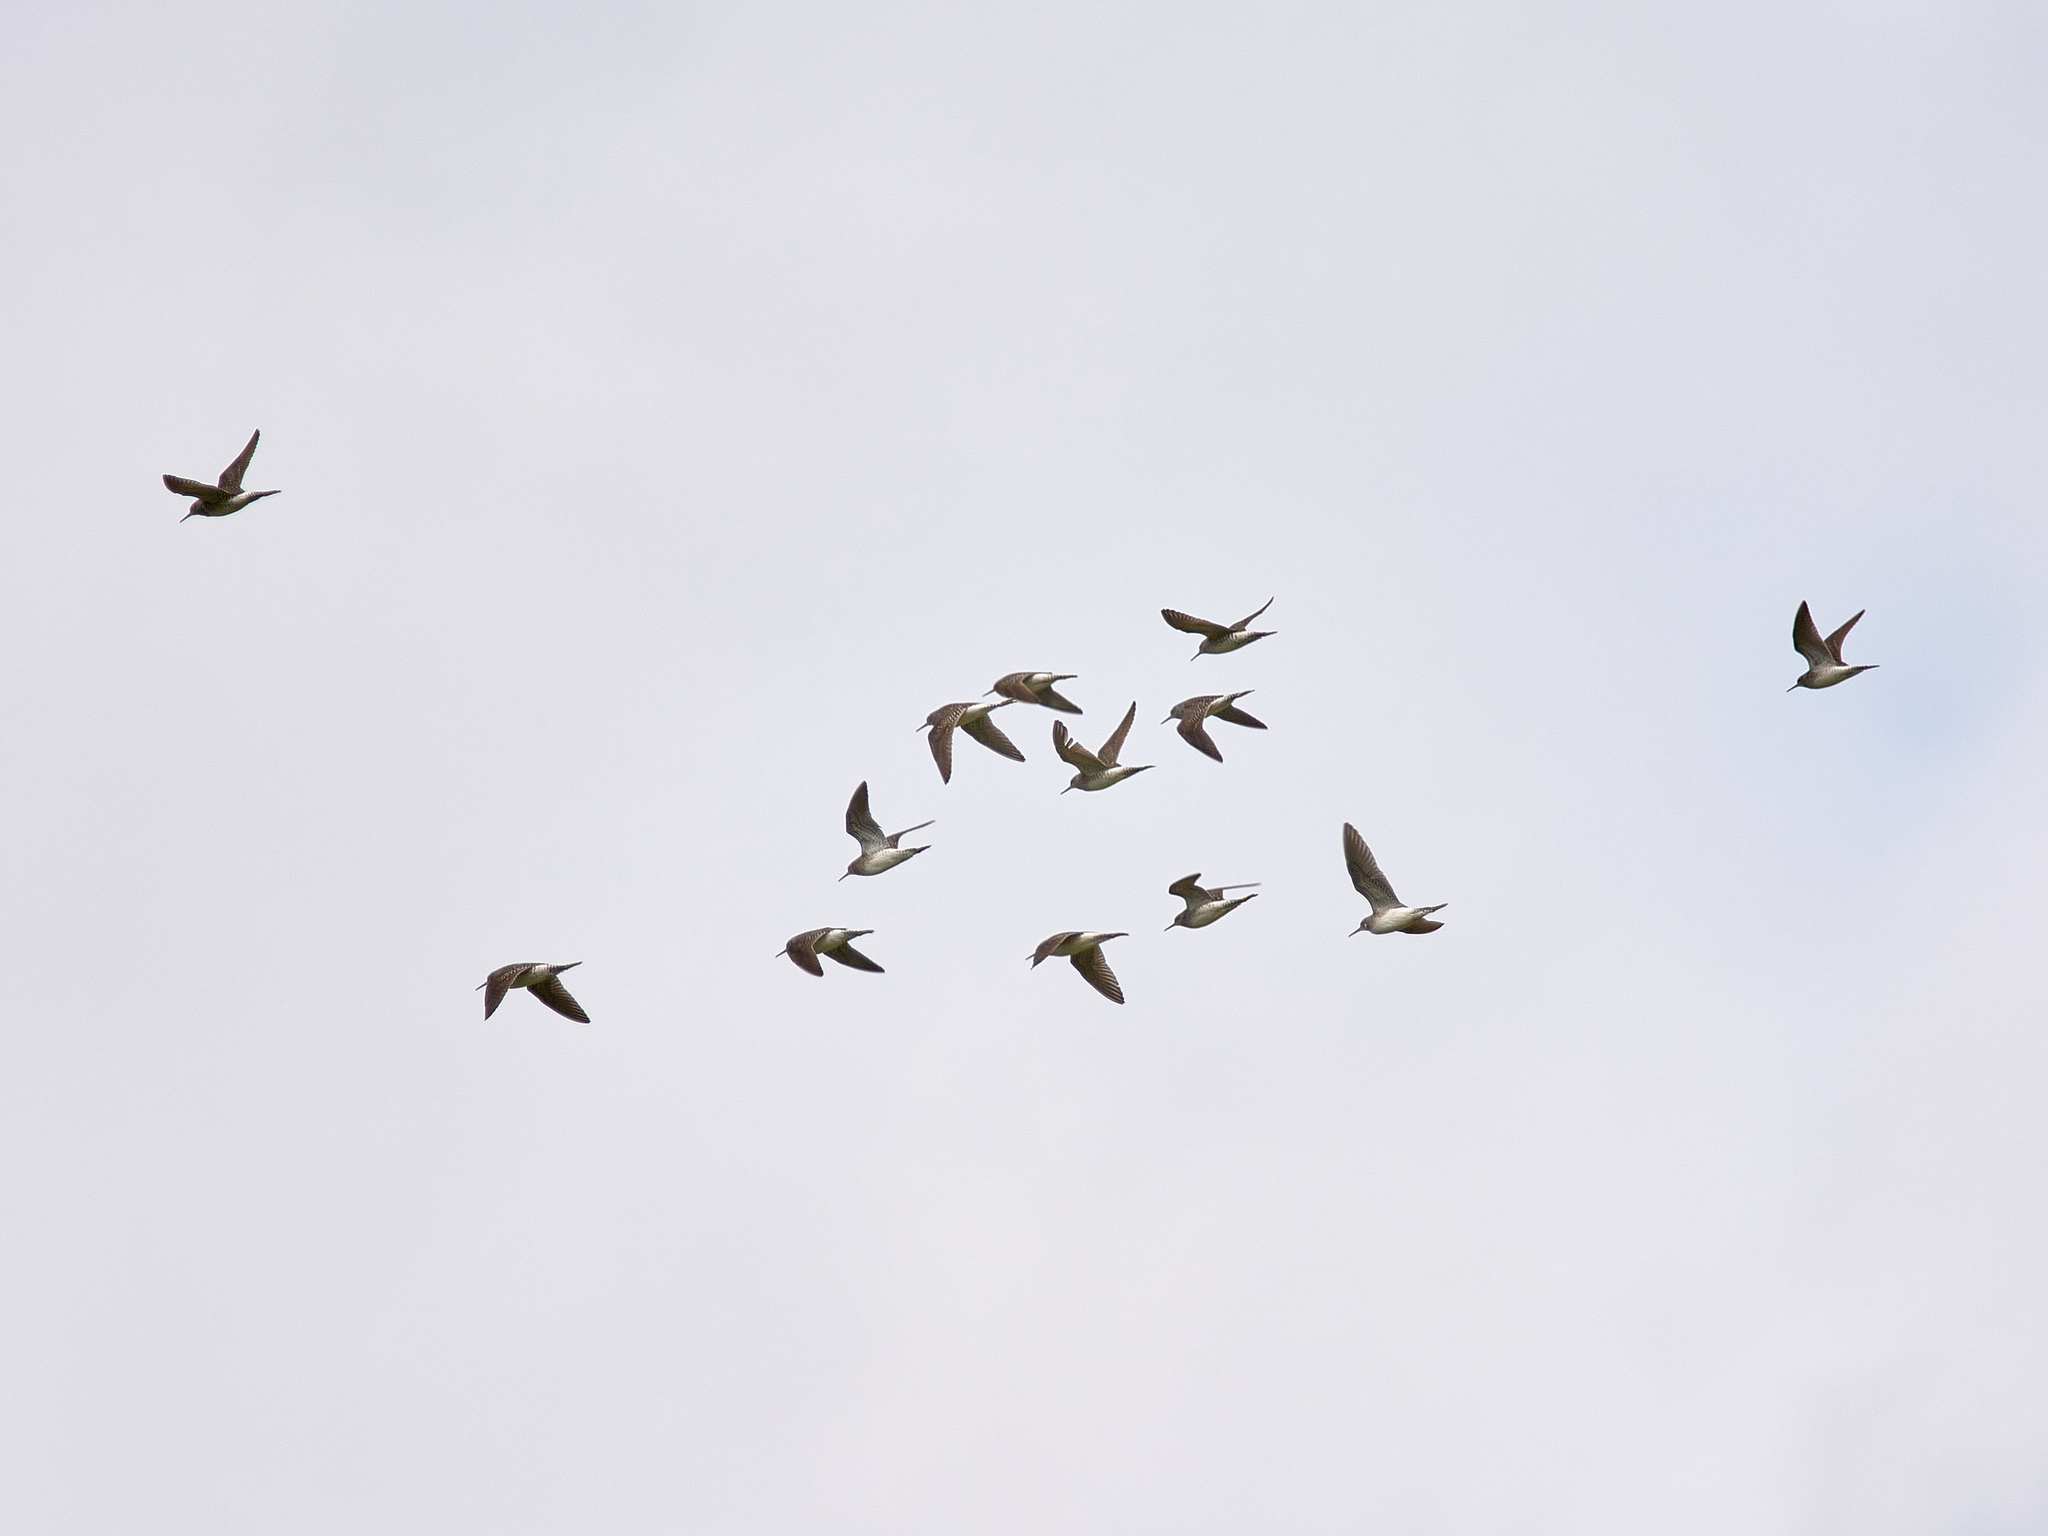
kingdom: Animalia
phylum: Chordata
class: Aves
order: Charadriiformes
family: Scolopacidae
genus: Tringa
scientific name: Tringa glareola
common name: Wood sandpiper
